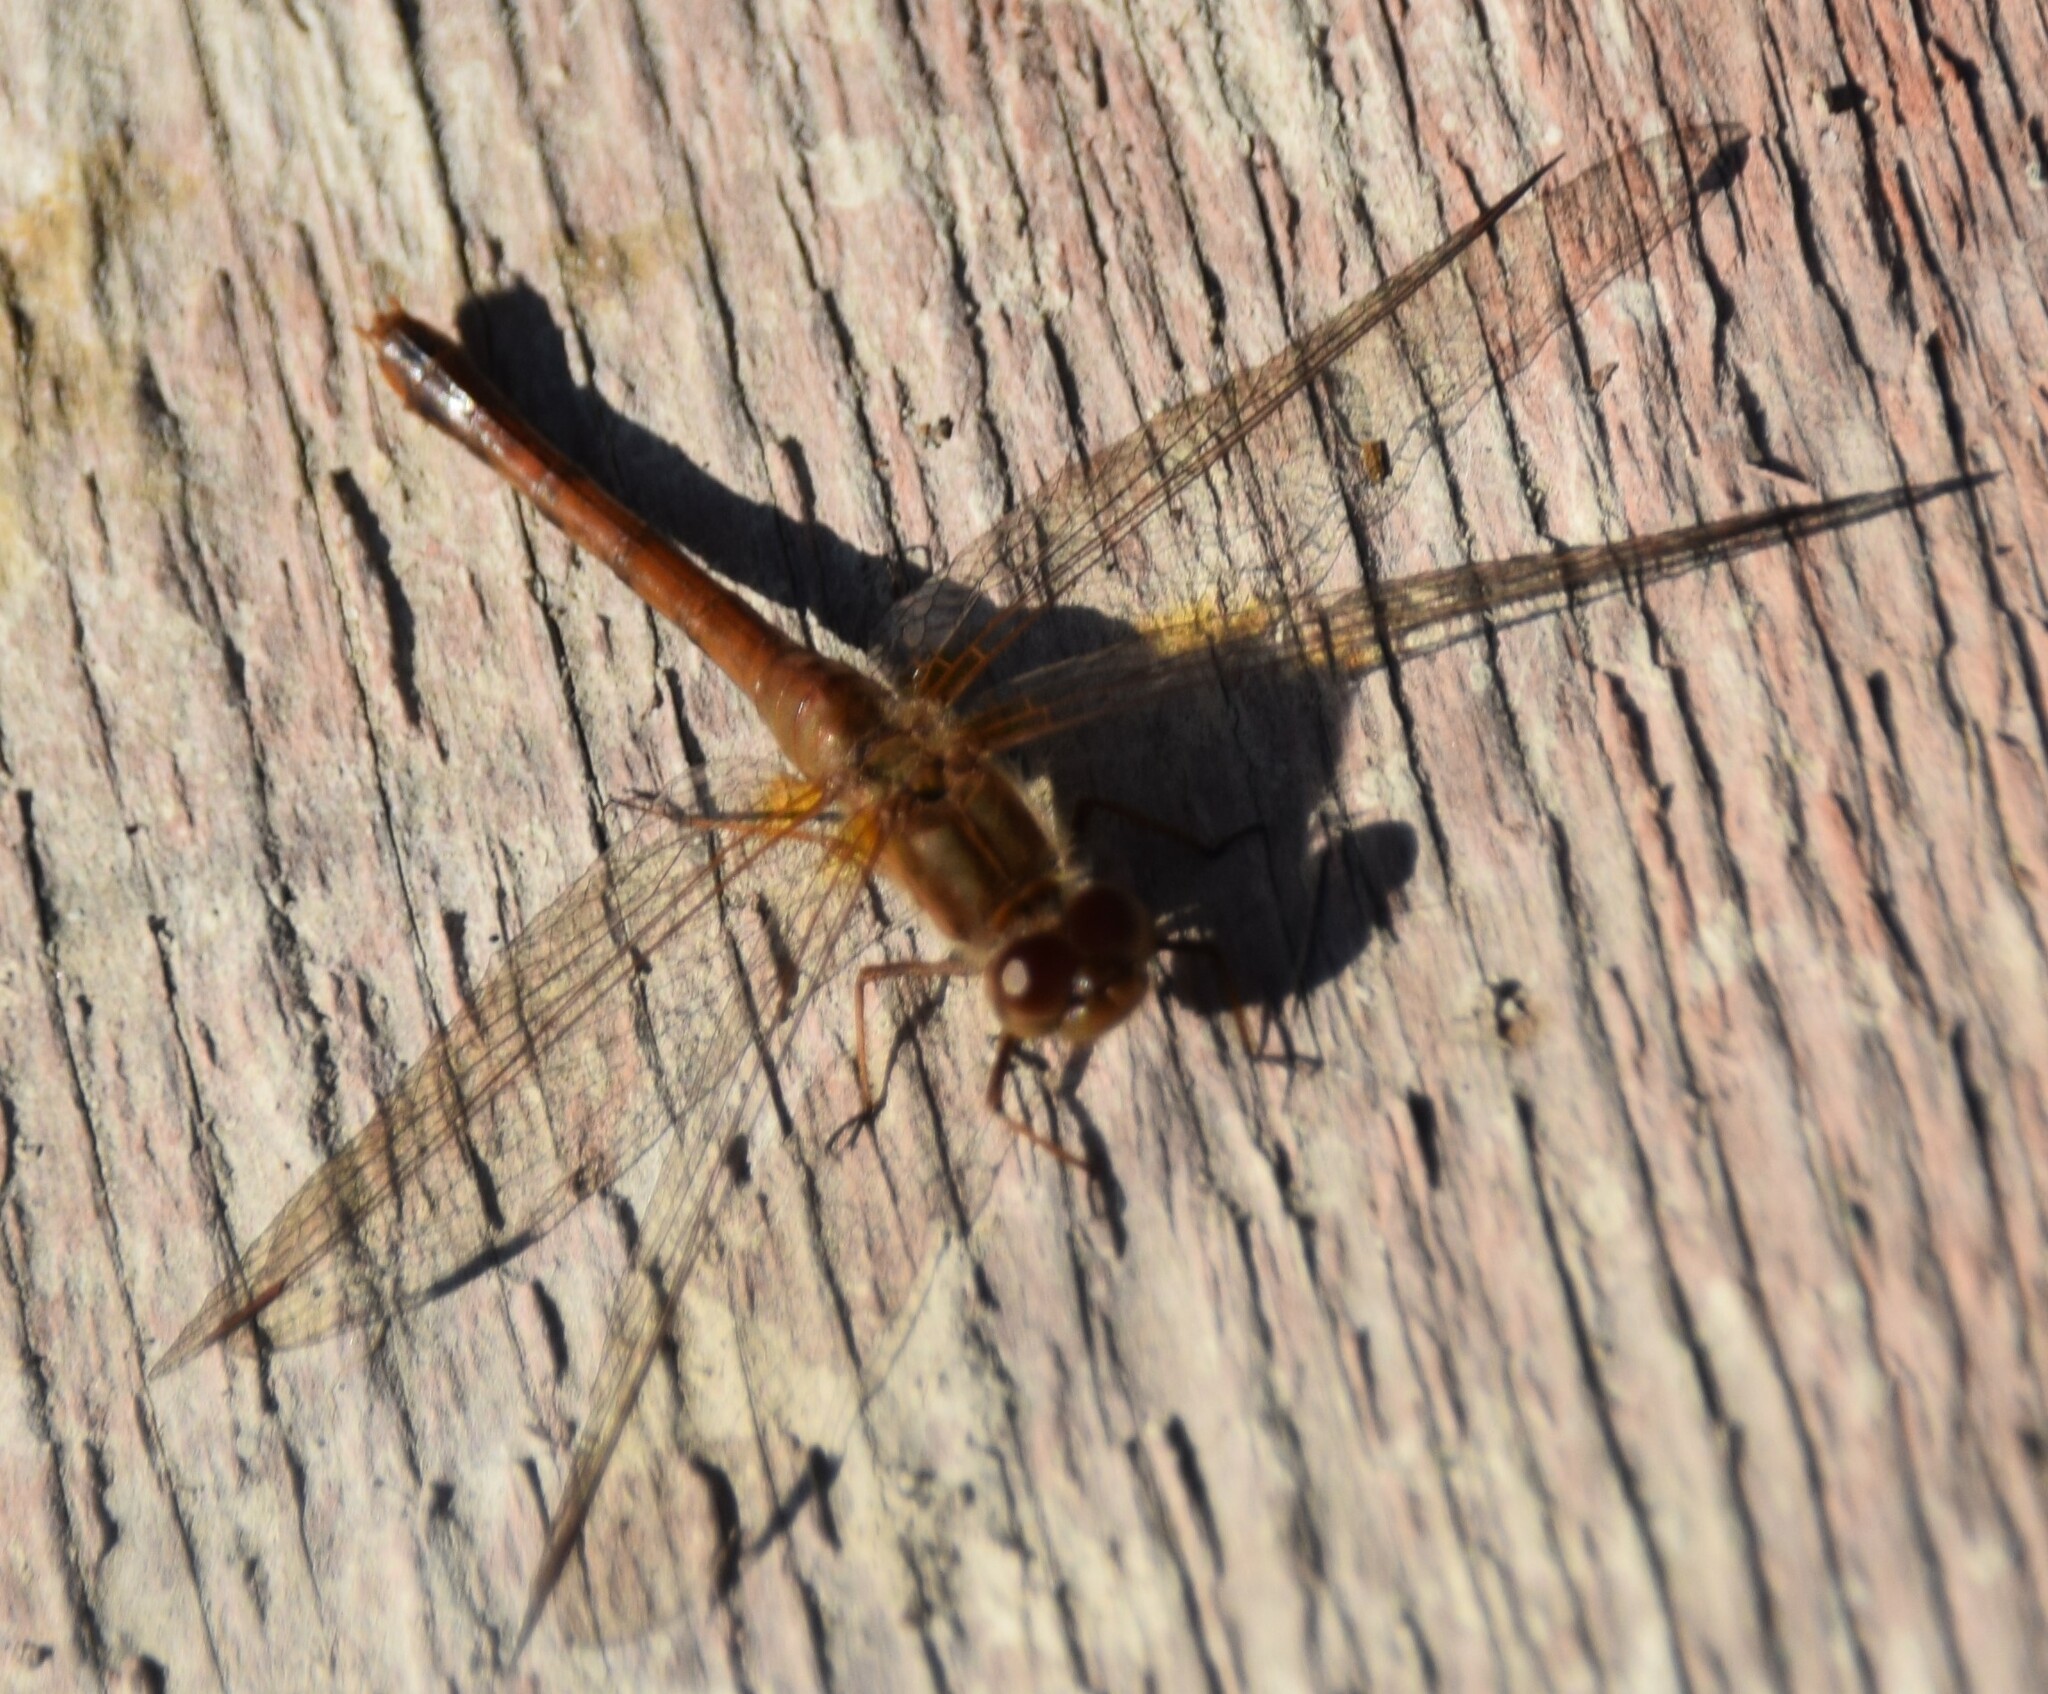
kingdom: Animalia
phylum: Arthropoda
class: Insecta
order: Odonata
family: Libellulidae
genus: Sympetrum
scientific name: Sympetrum vicinum
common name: Autumn meadowhawk
